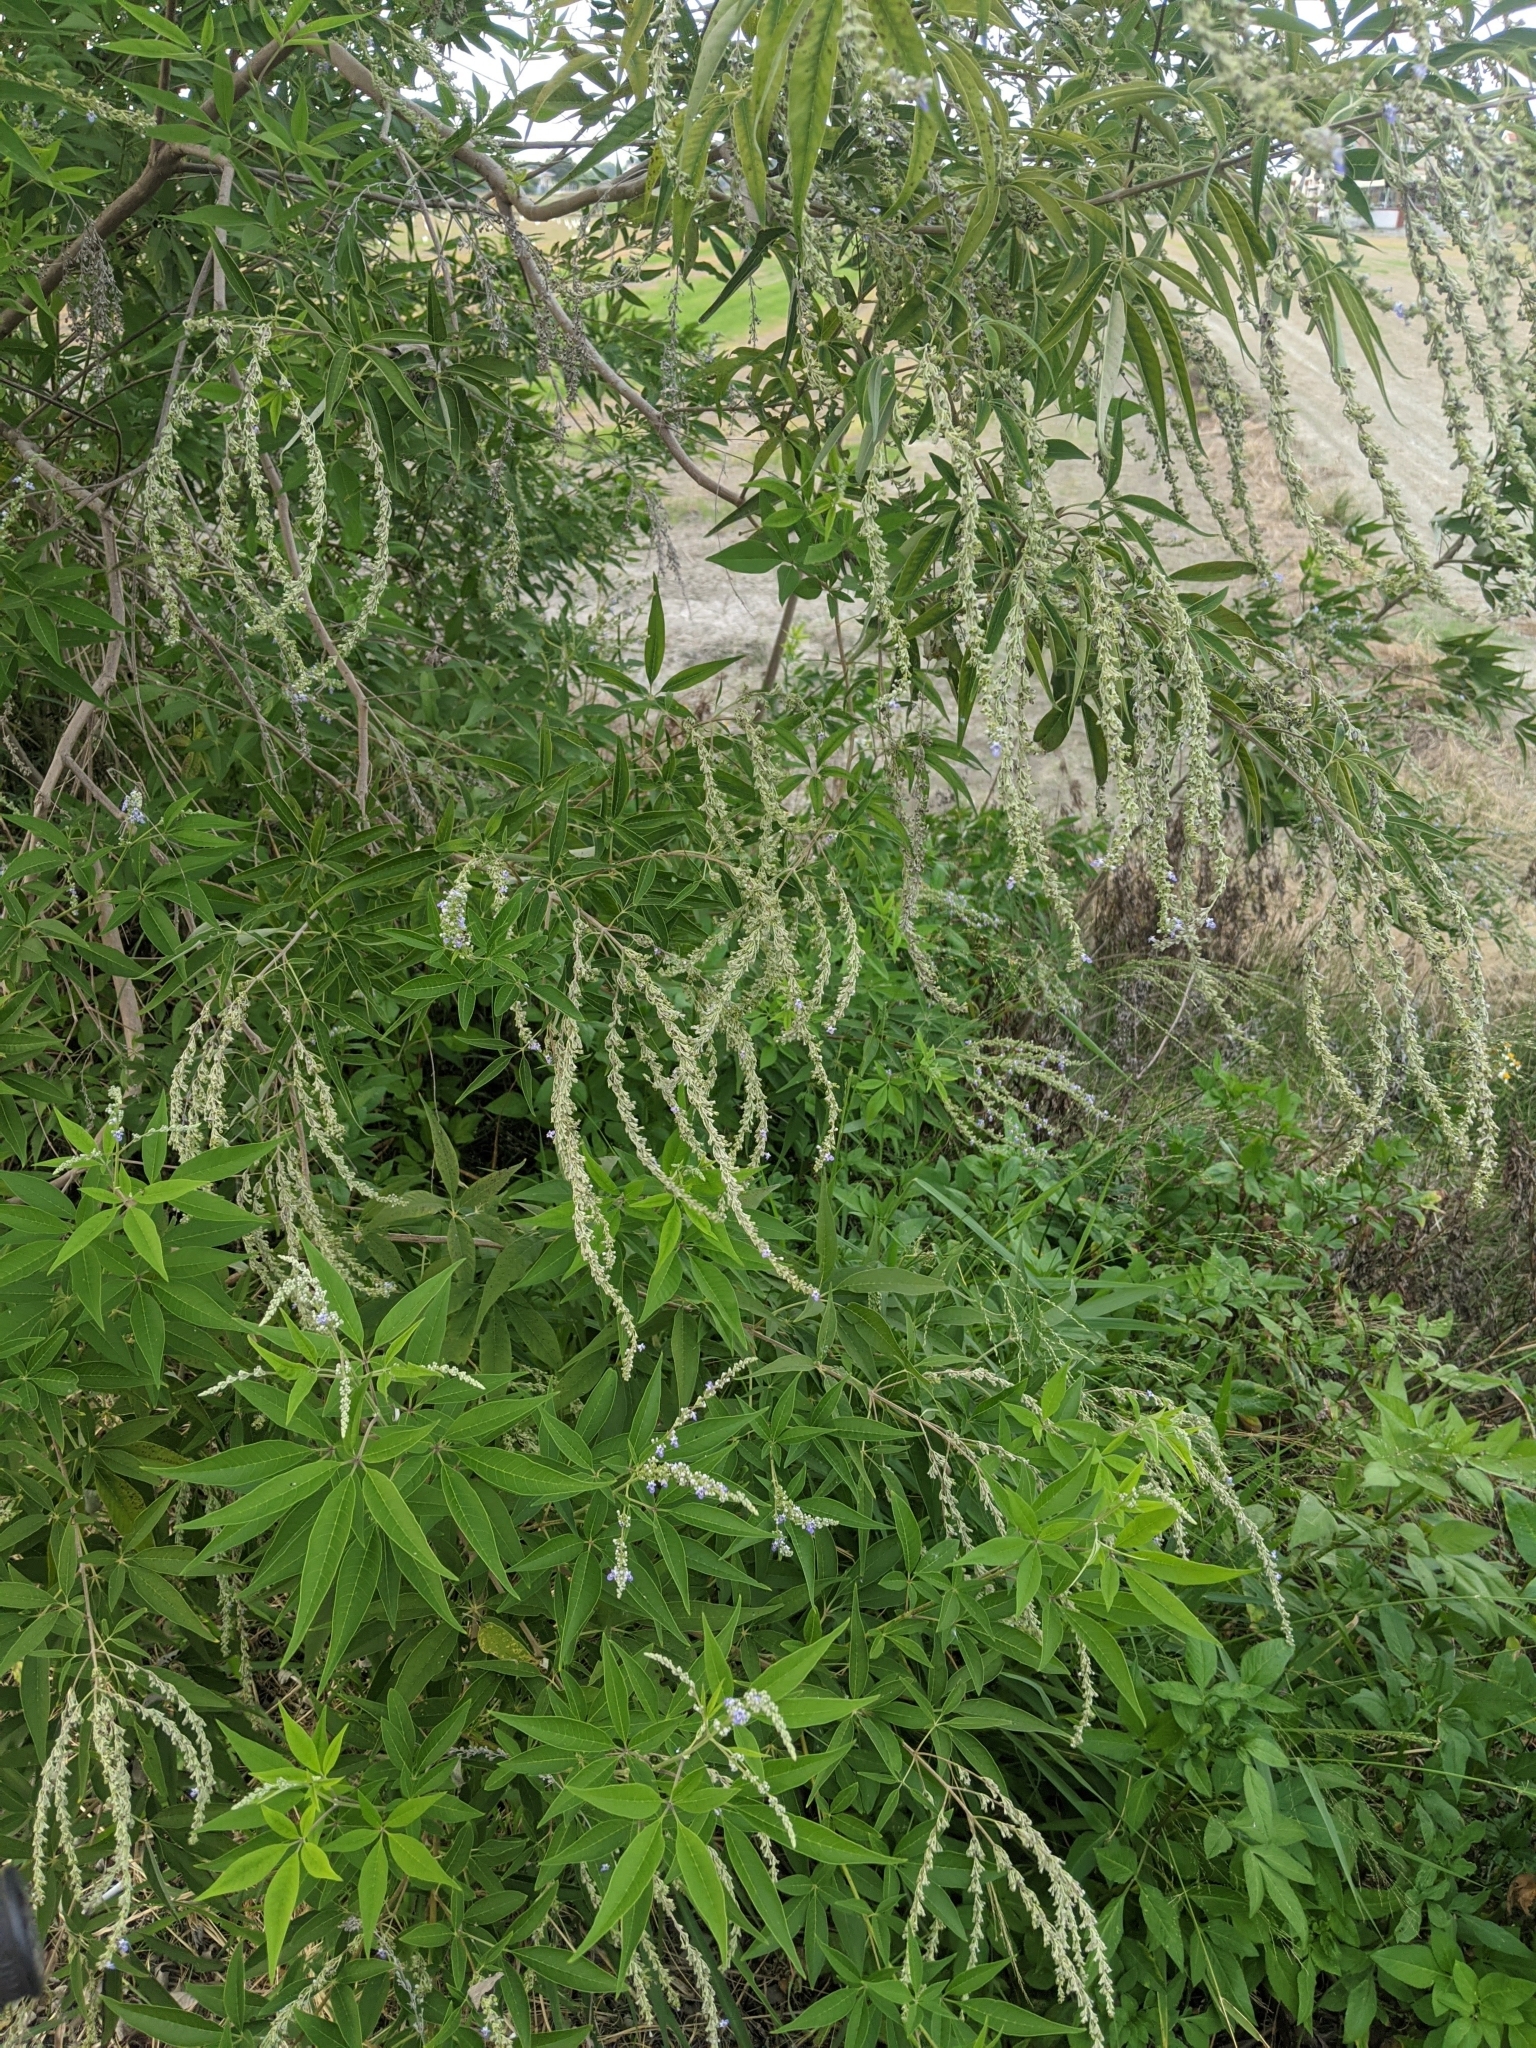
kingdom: Plantae
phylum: Tracheophyta
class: Magnoliopsida
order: Lamiales
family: Lamiaceae
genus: Vitex
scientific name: Vitex negundo
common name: Chinese chastetree
